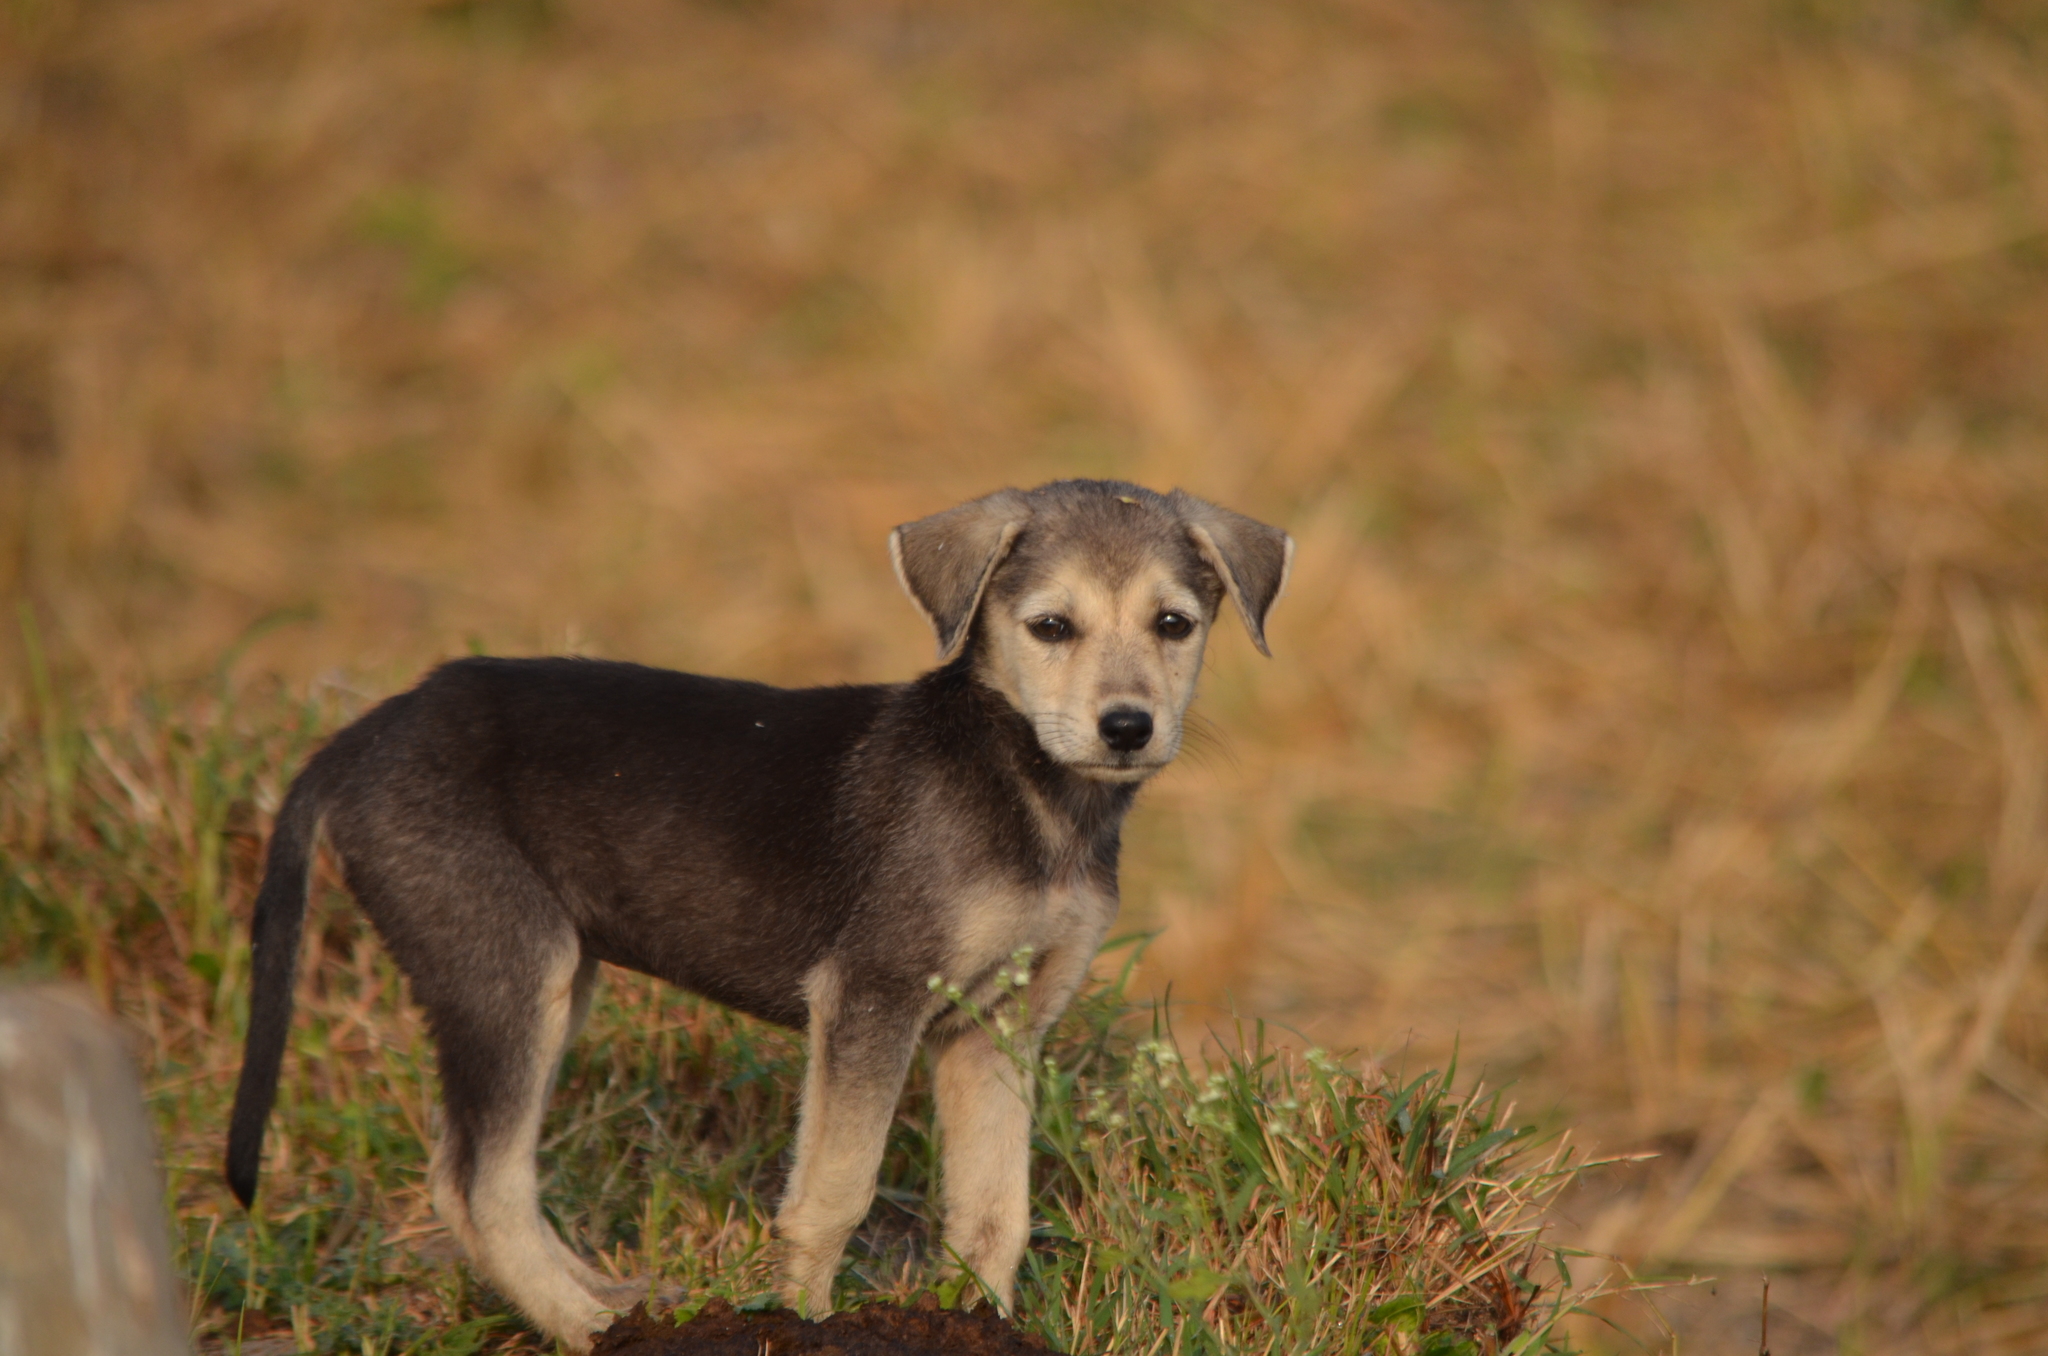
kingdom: Animalia
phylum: Chordata
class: Mammalia
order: Carnivora
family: Canidae
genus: Canis
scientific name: Canis lupus
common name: Gray wolf
